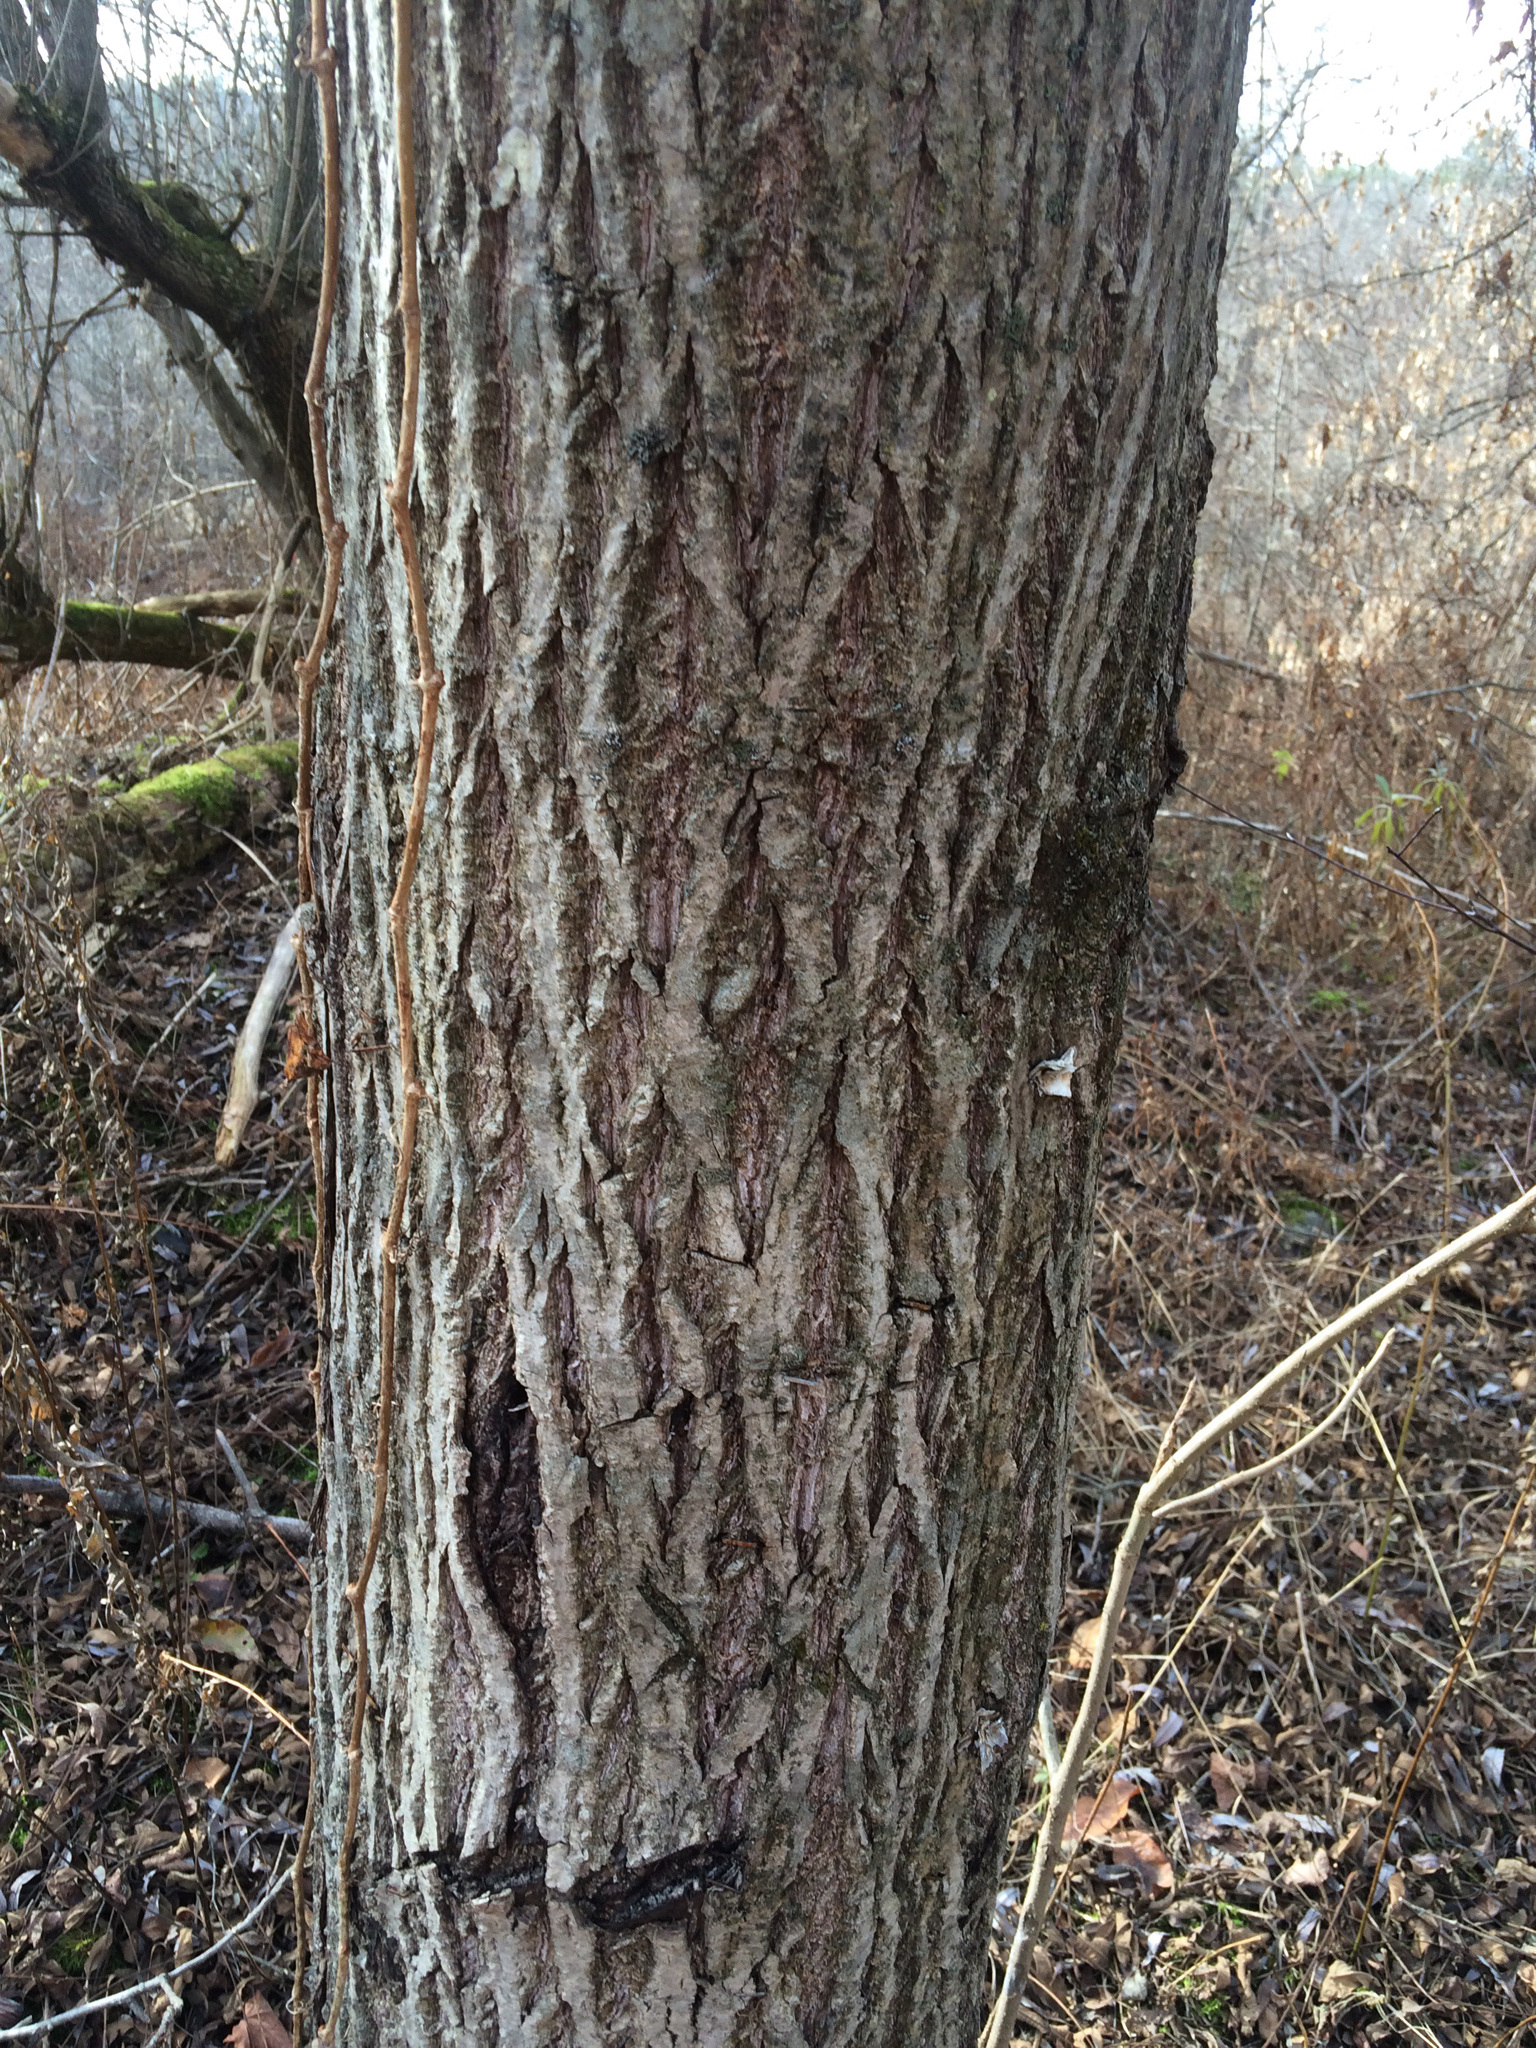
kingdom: Plantae
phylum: Tracheophyta
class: Magnoliopsida
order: Fagales
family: Juglandaceae
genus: Juglans
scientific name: Juglans cinerea
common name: Butternut
